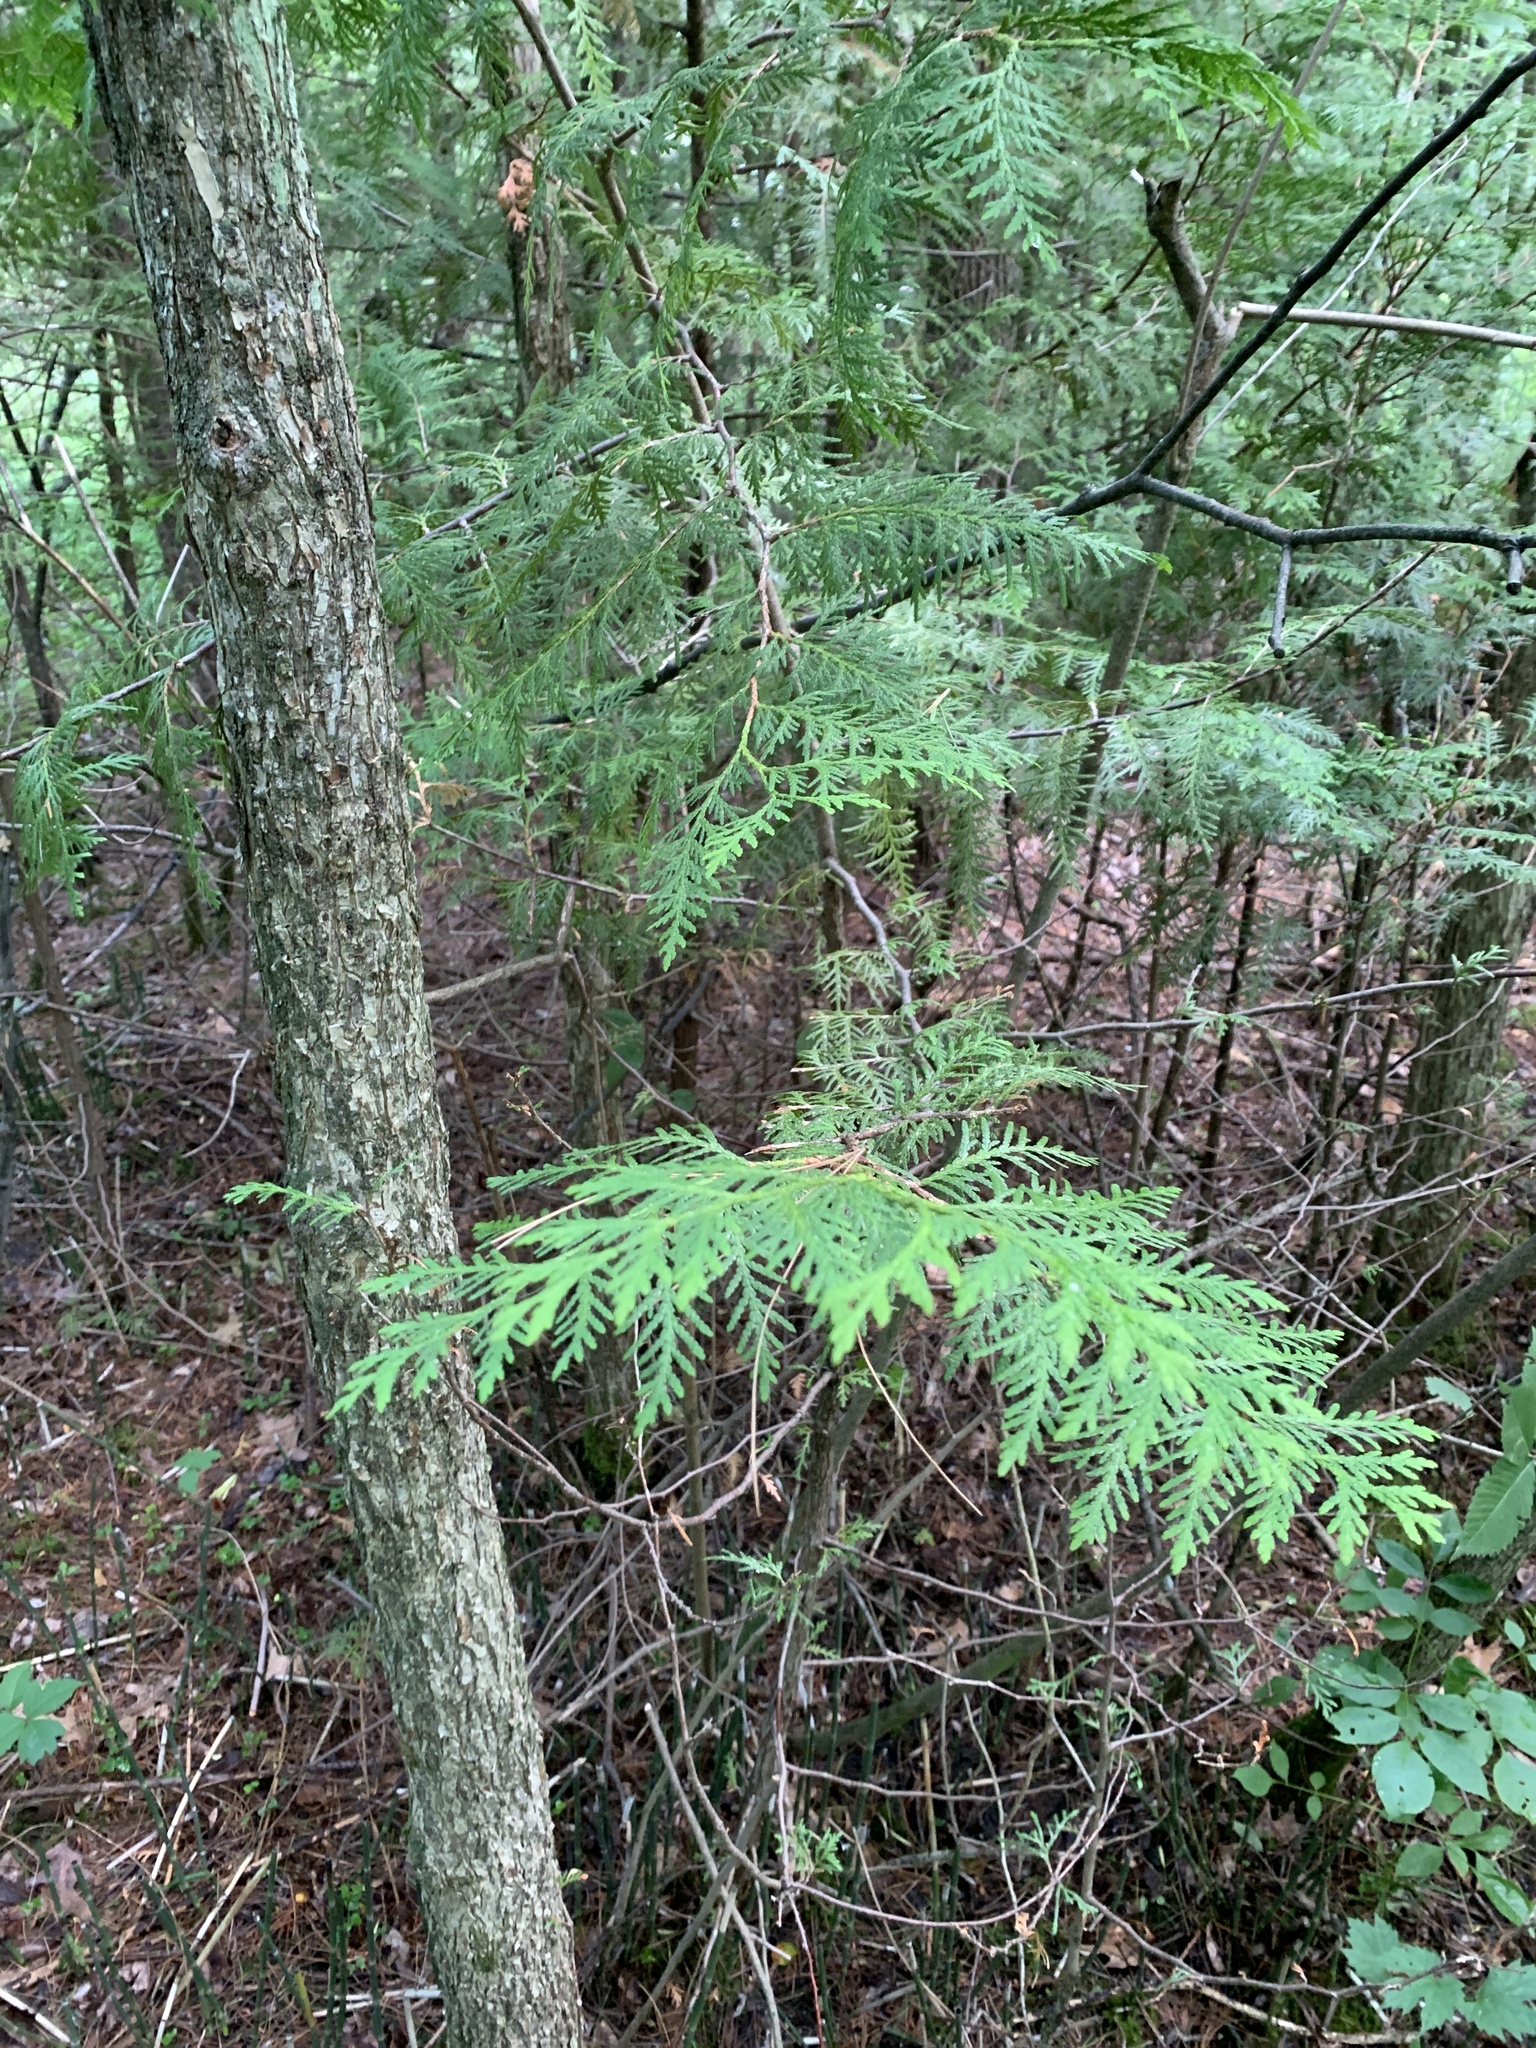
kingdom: Plantae
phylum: Tracheophyta
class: Pinopsida
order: Pinales
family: Cupressaceae
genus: Thuja
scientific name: Thuja occidentalis
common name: Northern white-cedar
